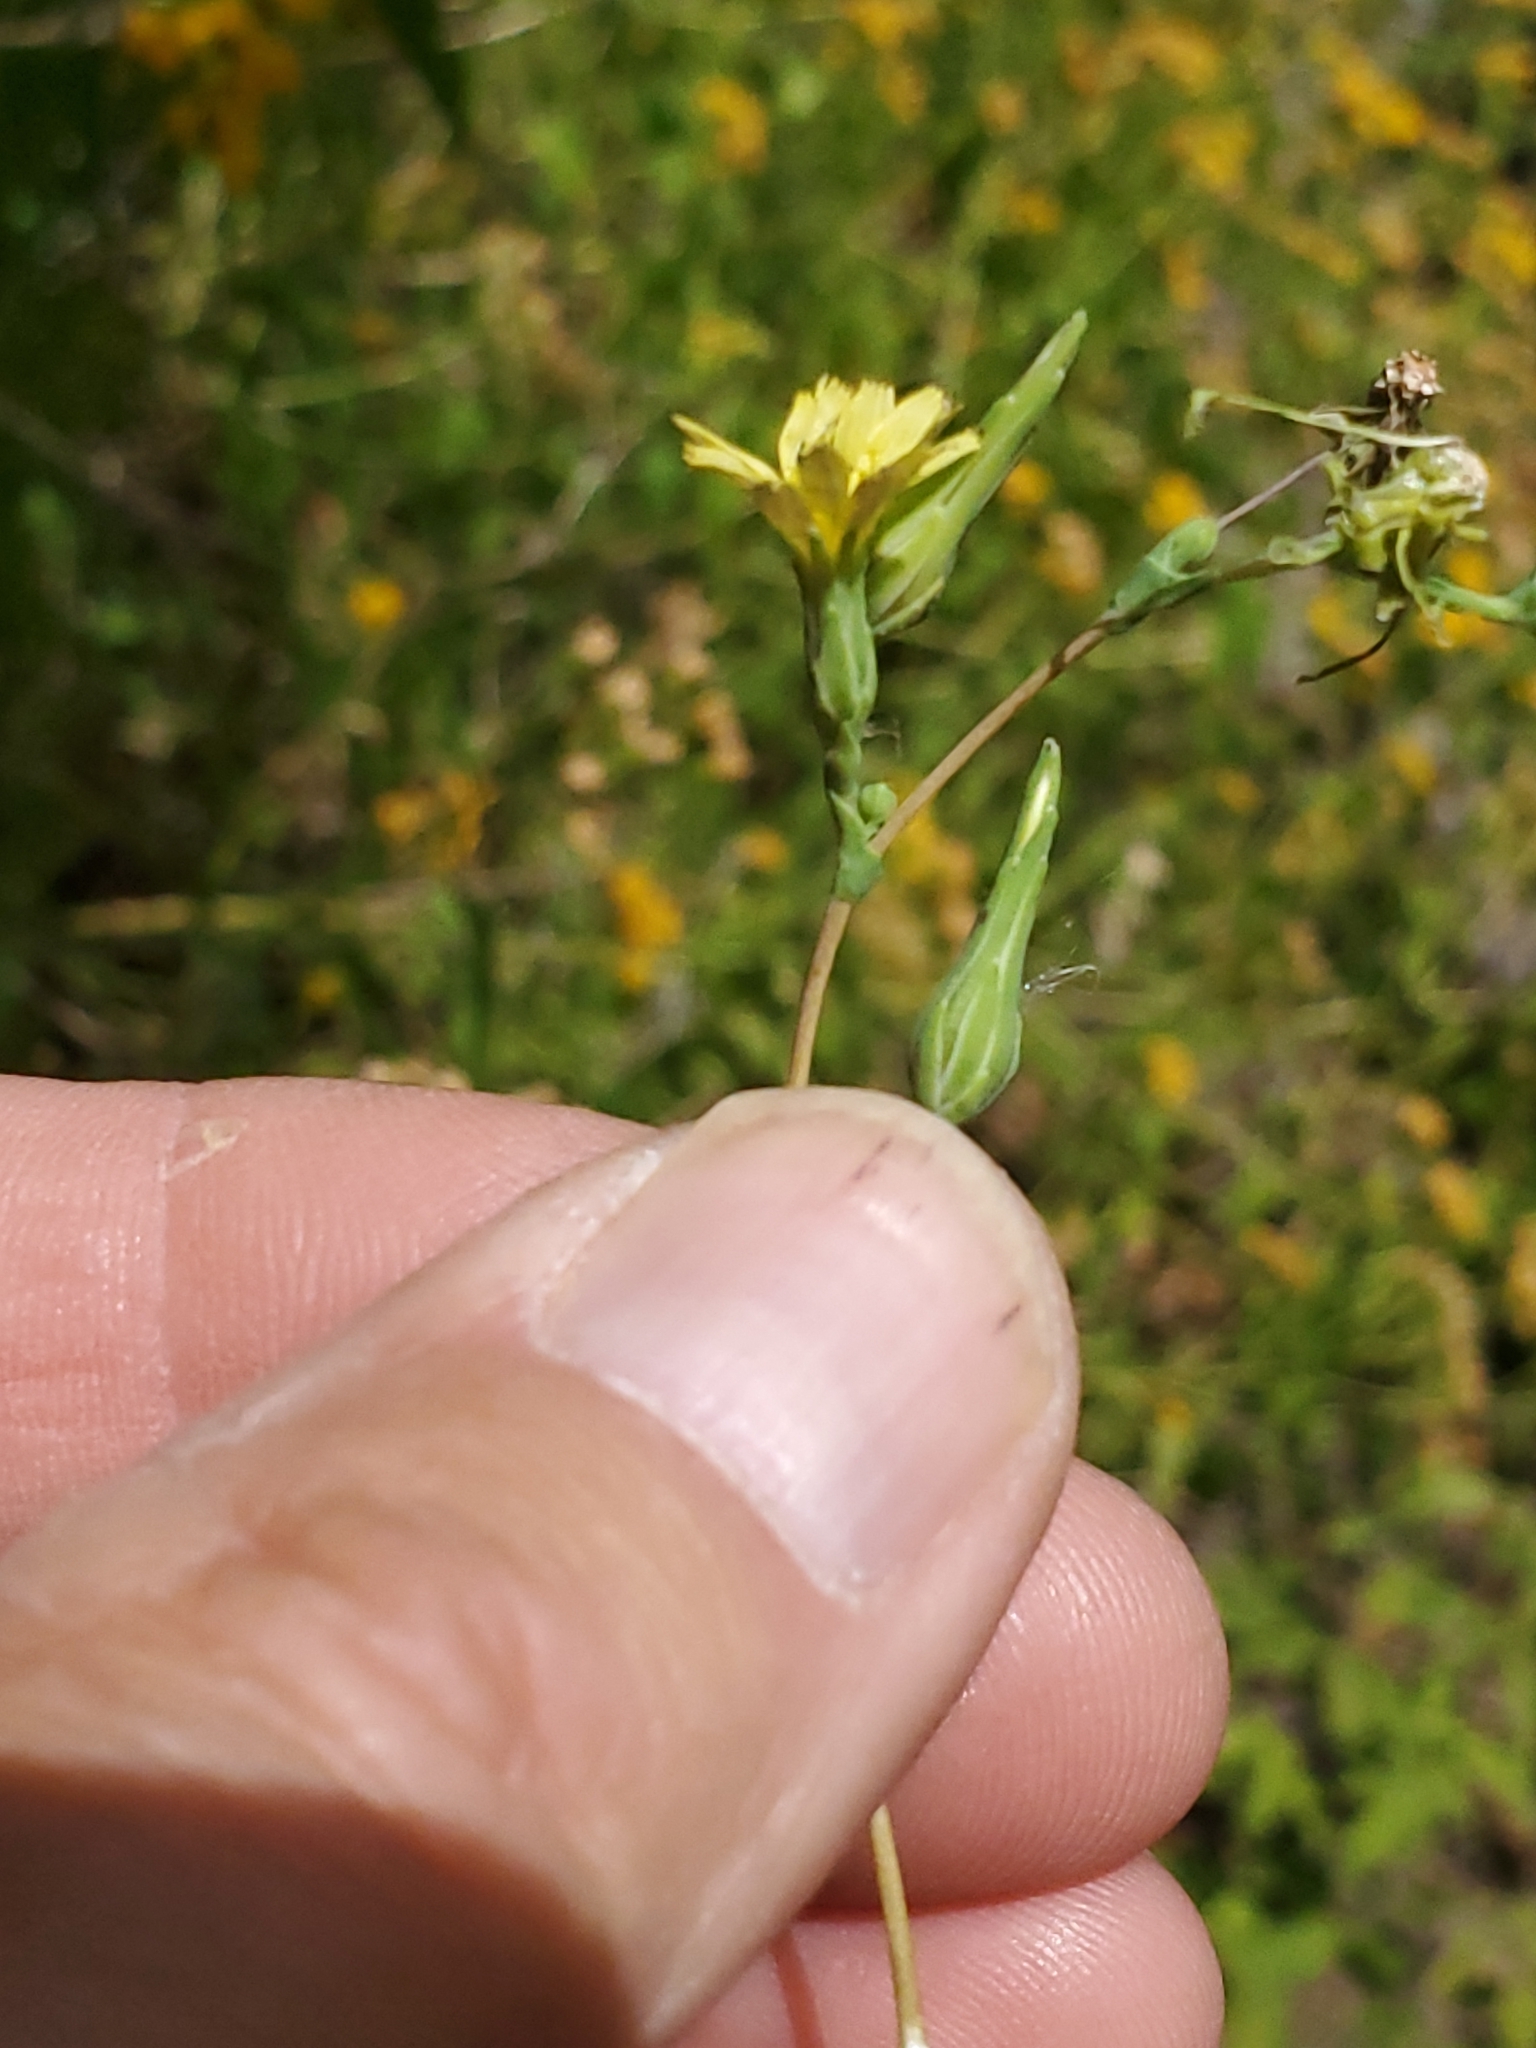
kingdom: Plantae
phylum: Tracheophyta
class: Magnoliopsida
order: Asterales
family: Asteraceae
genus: Lactuca
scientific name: Lactuca serriola
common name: Prickly lettuce
